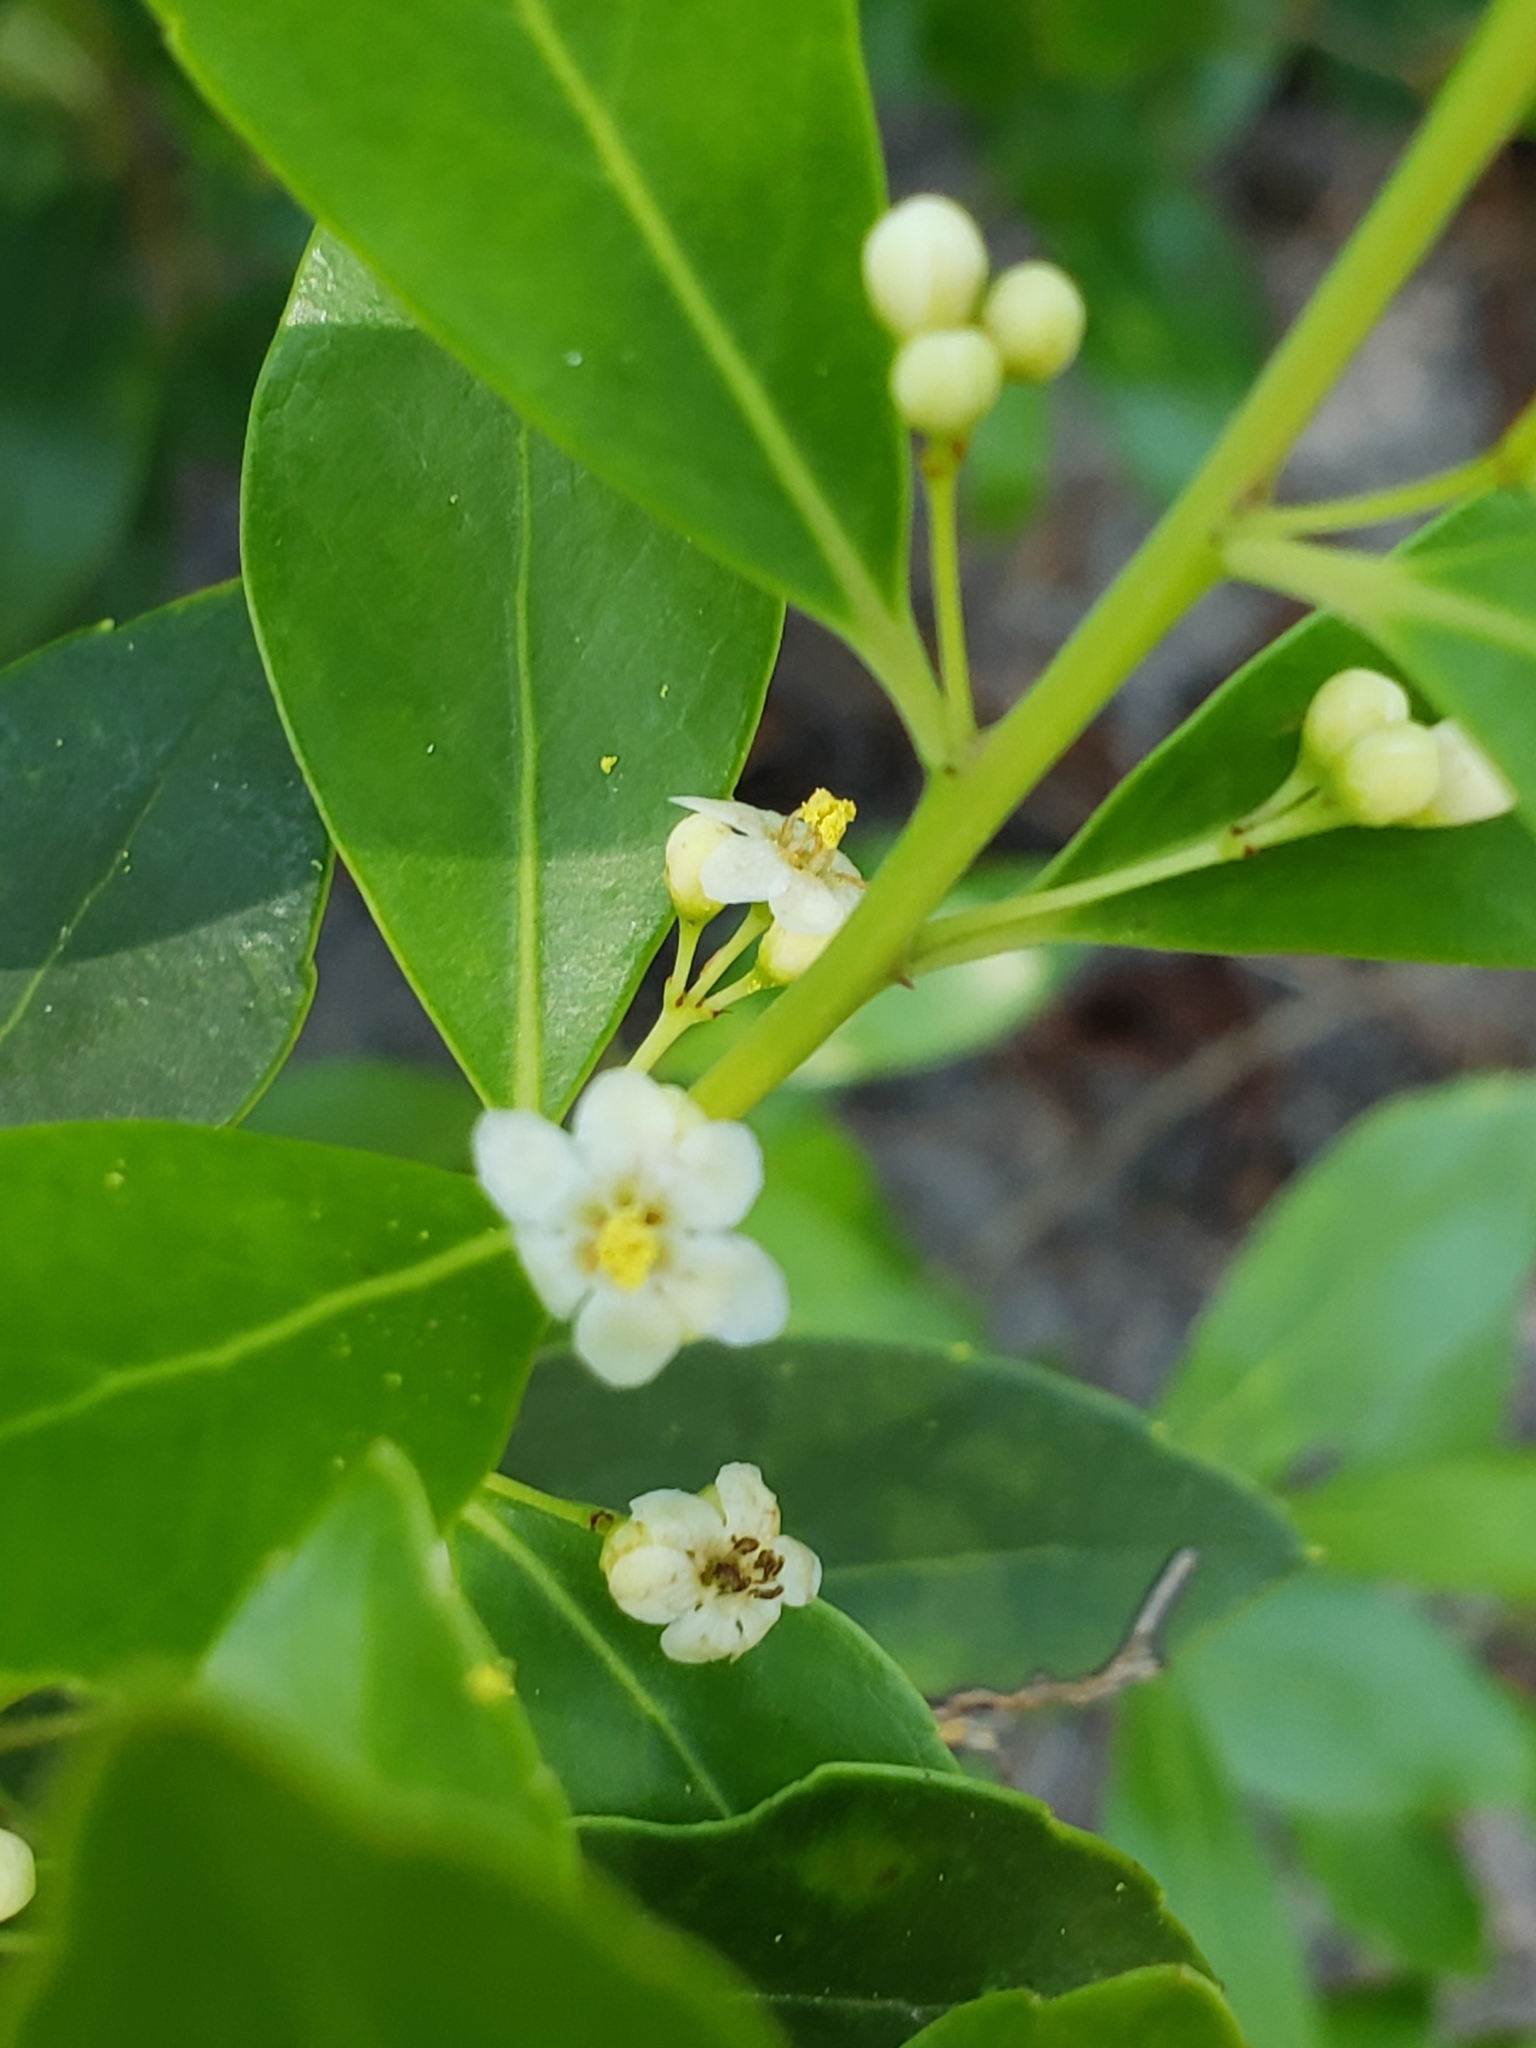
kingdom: Plantae
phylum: Tracheophyta
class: Magnoliopsida
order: Aquifoliales
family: Aquifoliaceae
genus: Ilex
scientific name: Ilex glabra
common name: Bitter gallberry
